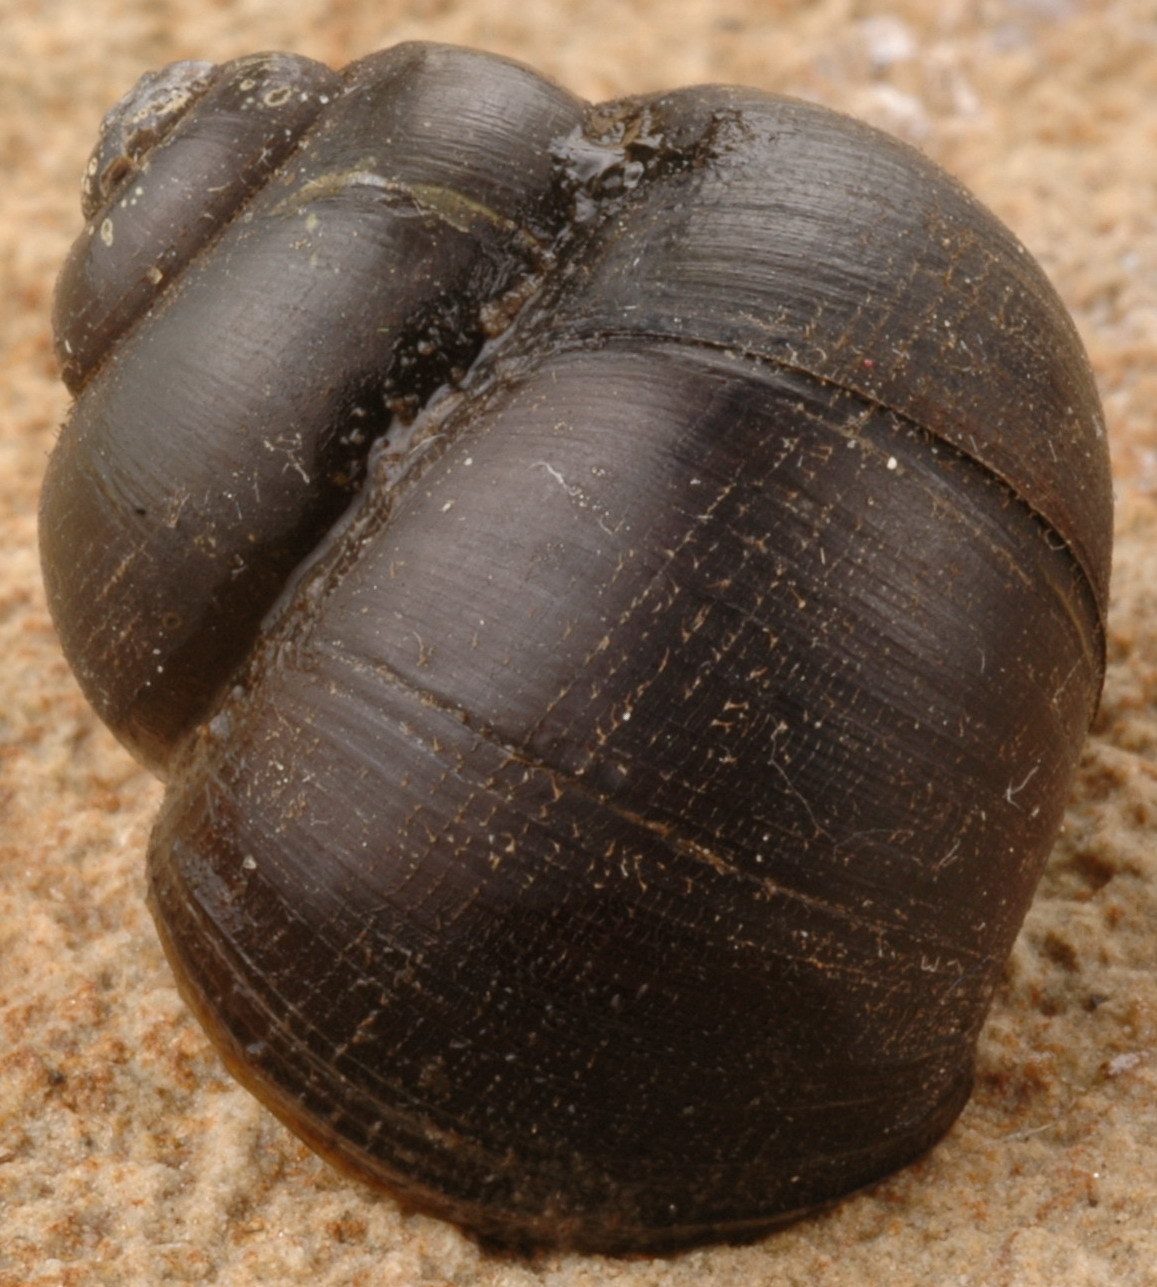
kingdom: Animalia
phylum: Mollusca
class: Gastropoda
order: Architaenioglossa
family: Viviparidae
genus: Callinina
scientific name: Callinina intertexta
